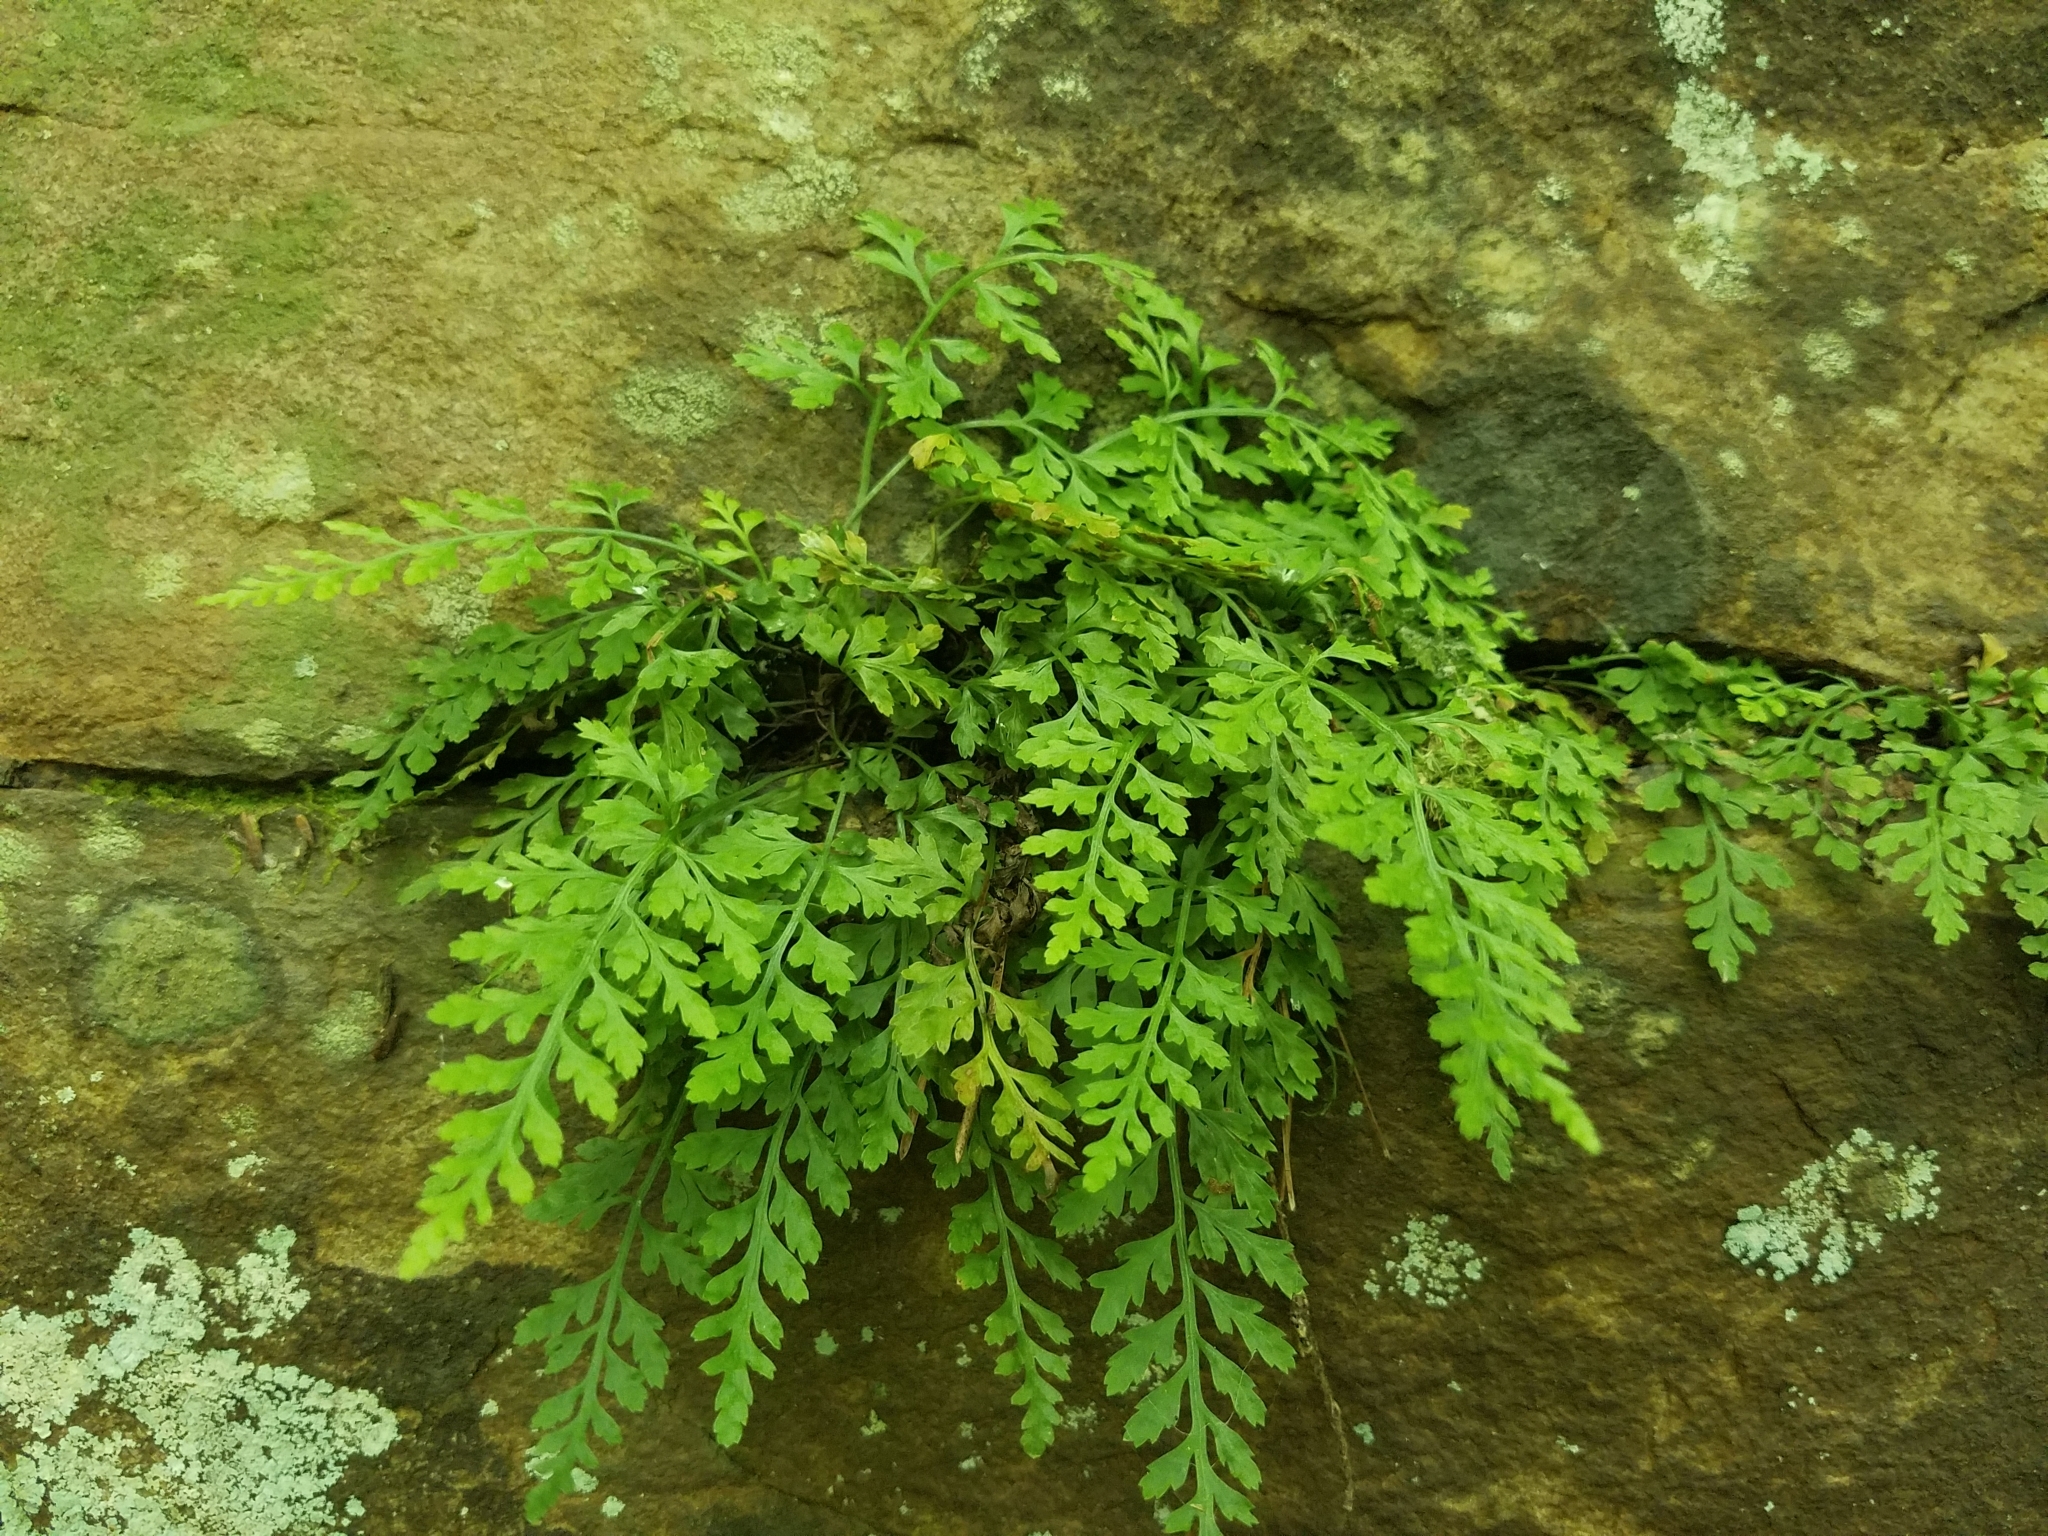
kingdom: Plantae
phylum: Tracheophyta
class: Polypodiopsida
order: Polypodiales
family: Aspleniaceae
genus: Asplenium
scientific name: Asplenium montanum
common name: Mountain spleenwort
